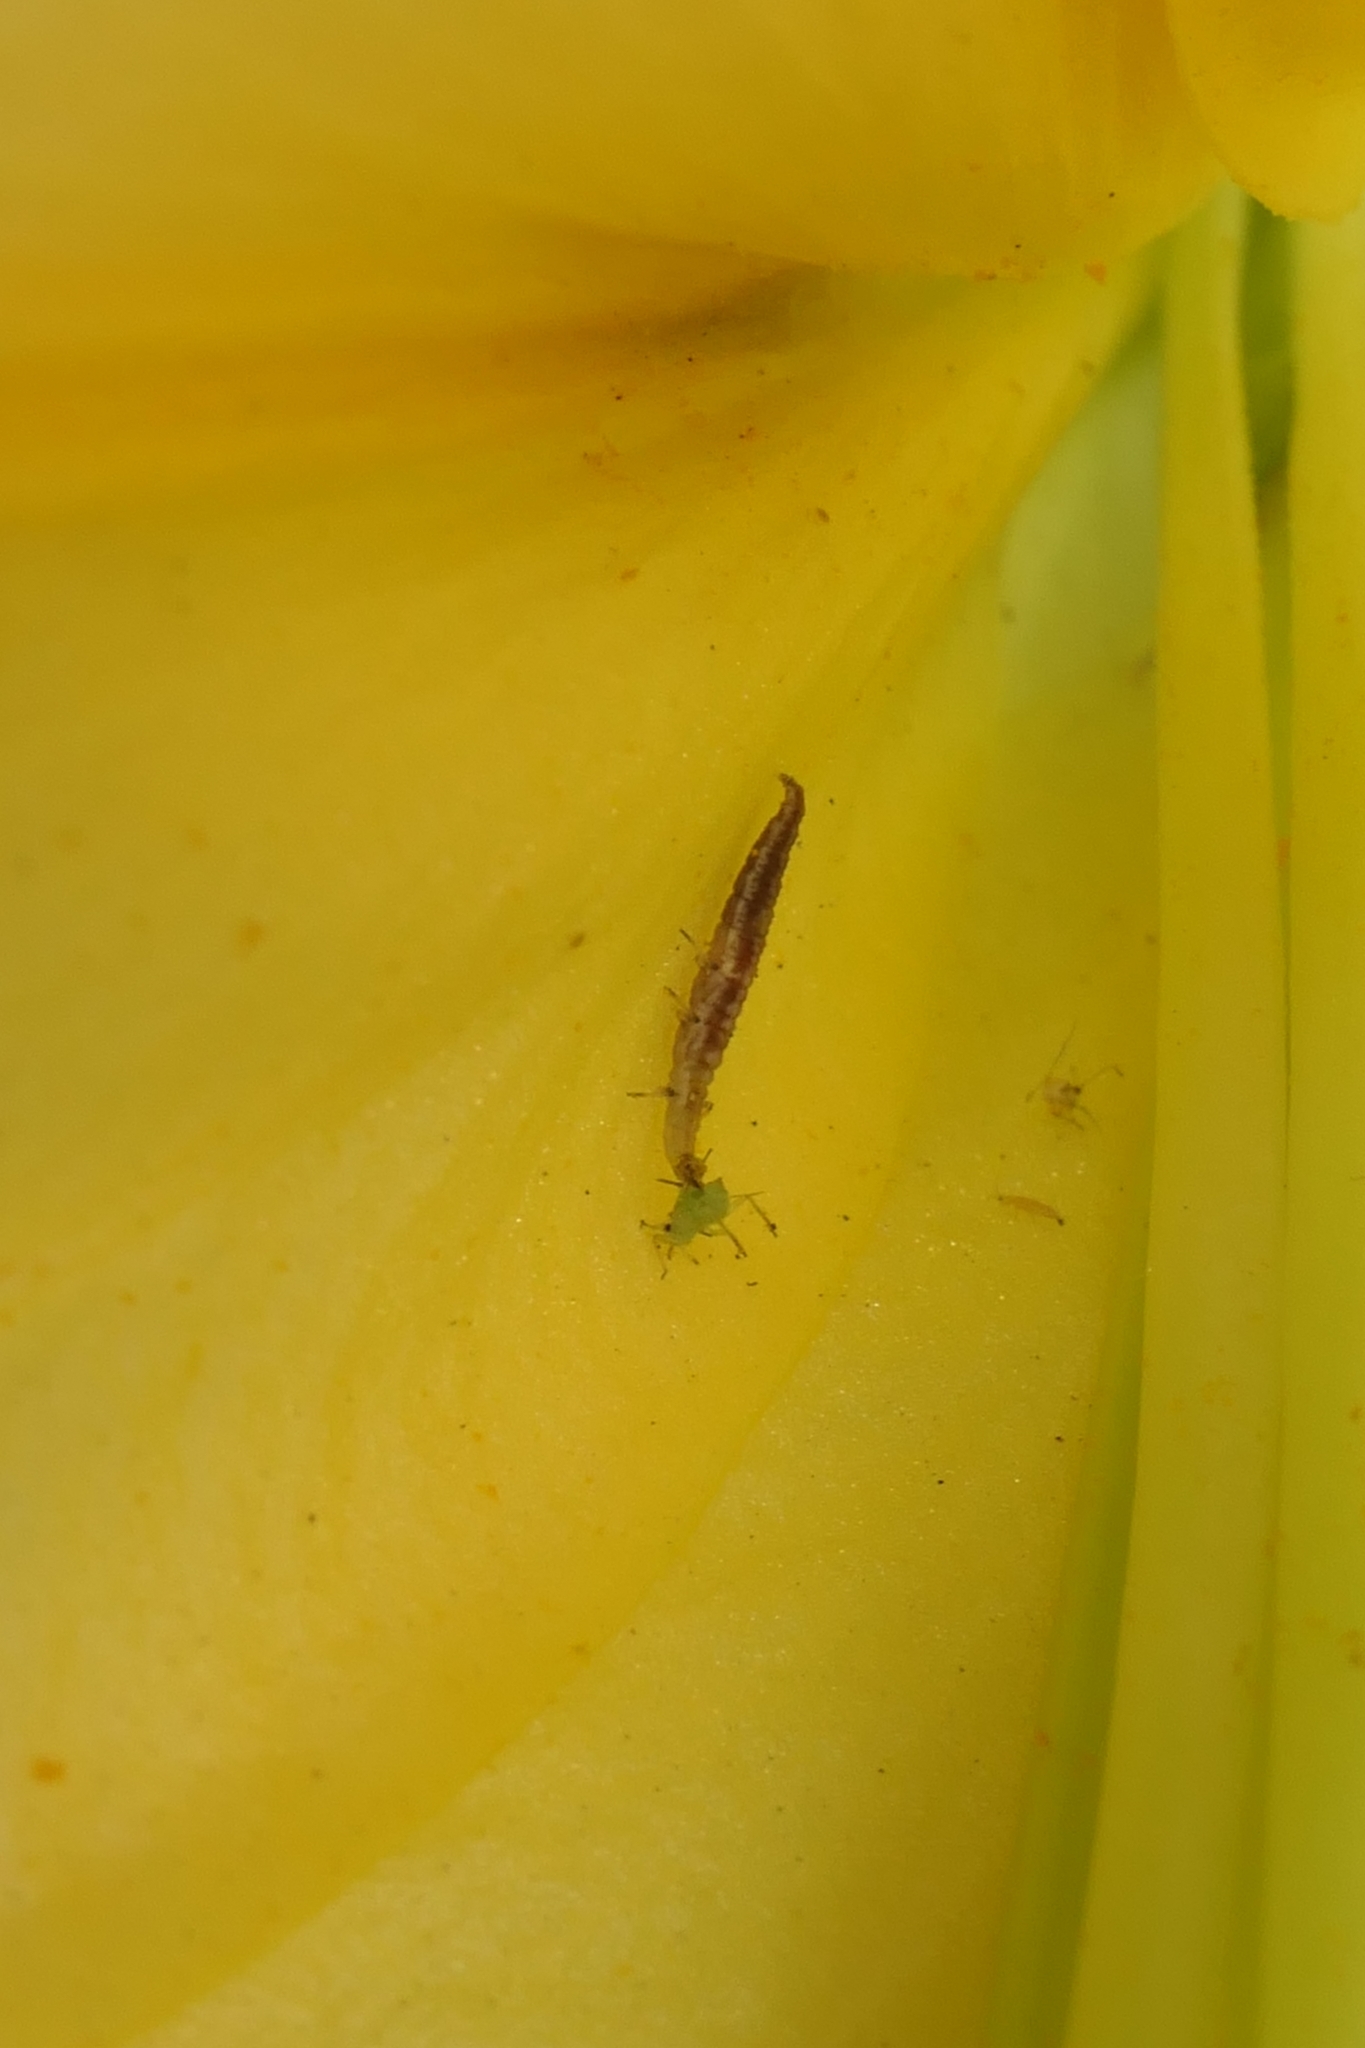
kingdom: Animalia
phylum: Arthropoda
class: Insecta
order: Neuroptera
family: Hemerobiidae
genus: Micromus
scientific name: Micromus tasmaniae
